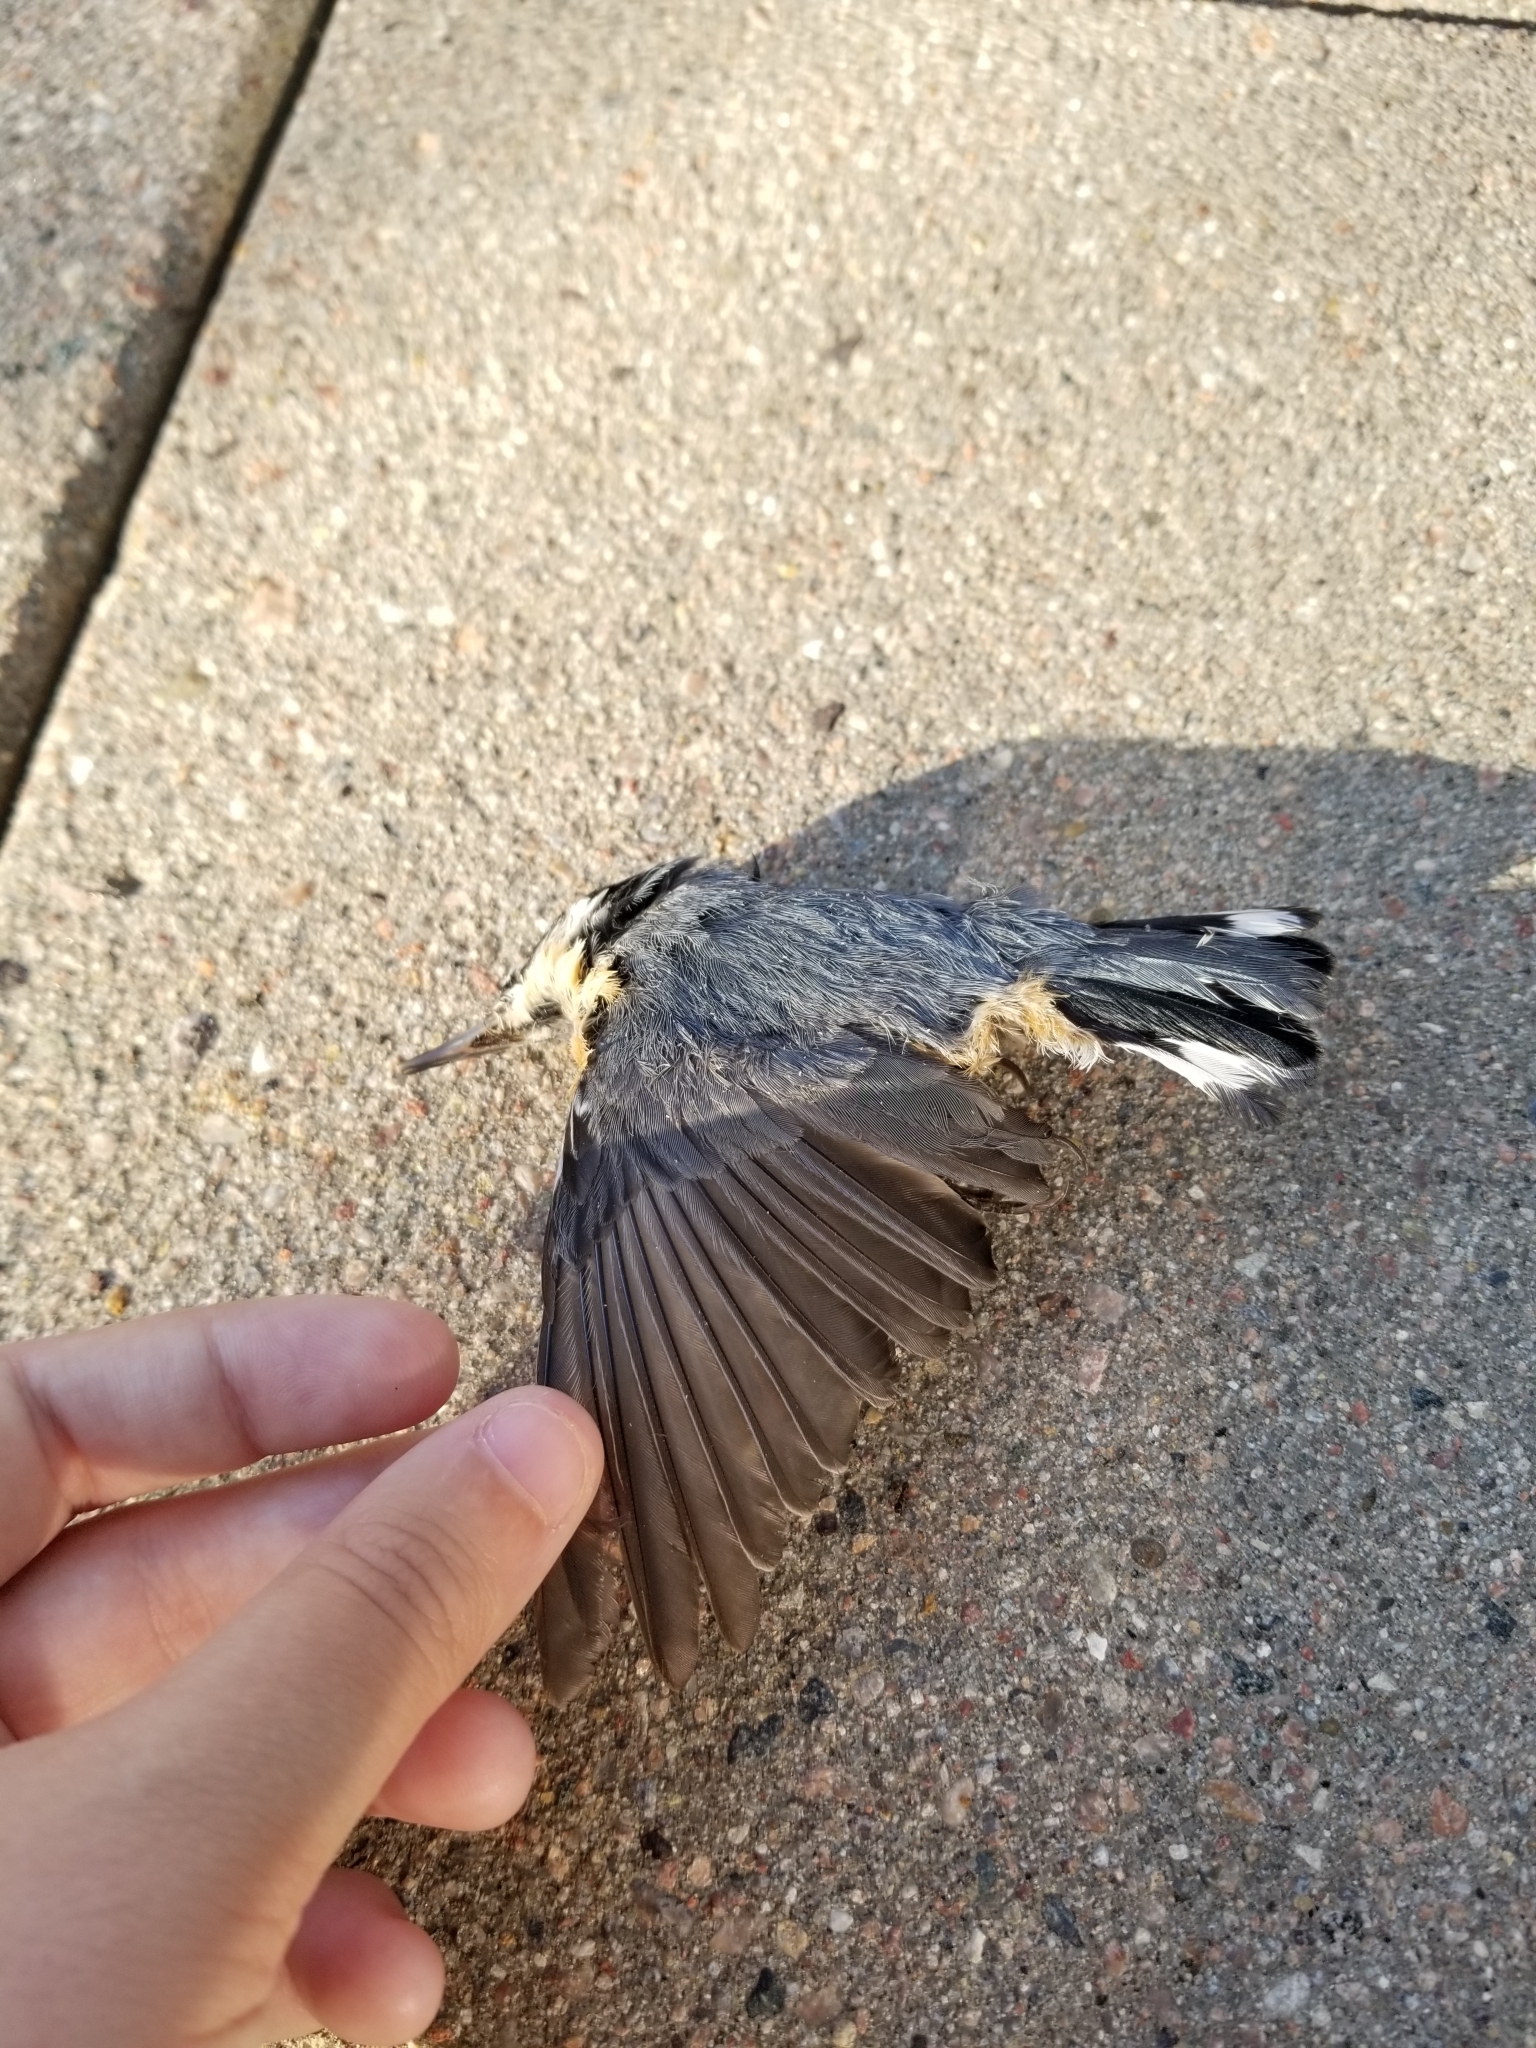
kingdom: Animalia
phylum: Chordata
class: Aves
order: Passeriformes
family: Sittidae
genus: Sitta
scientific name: Sitta canadensis
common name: Red-breasted nuthatch
